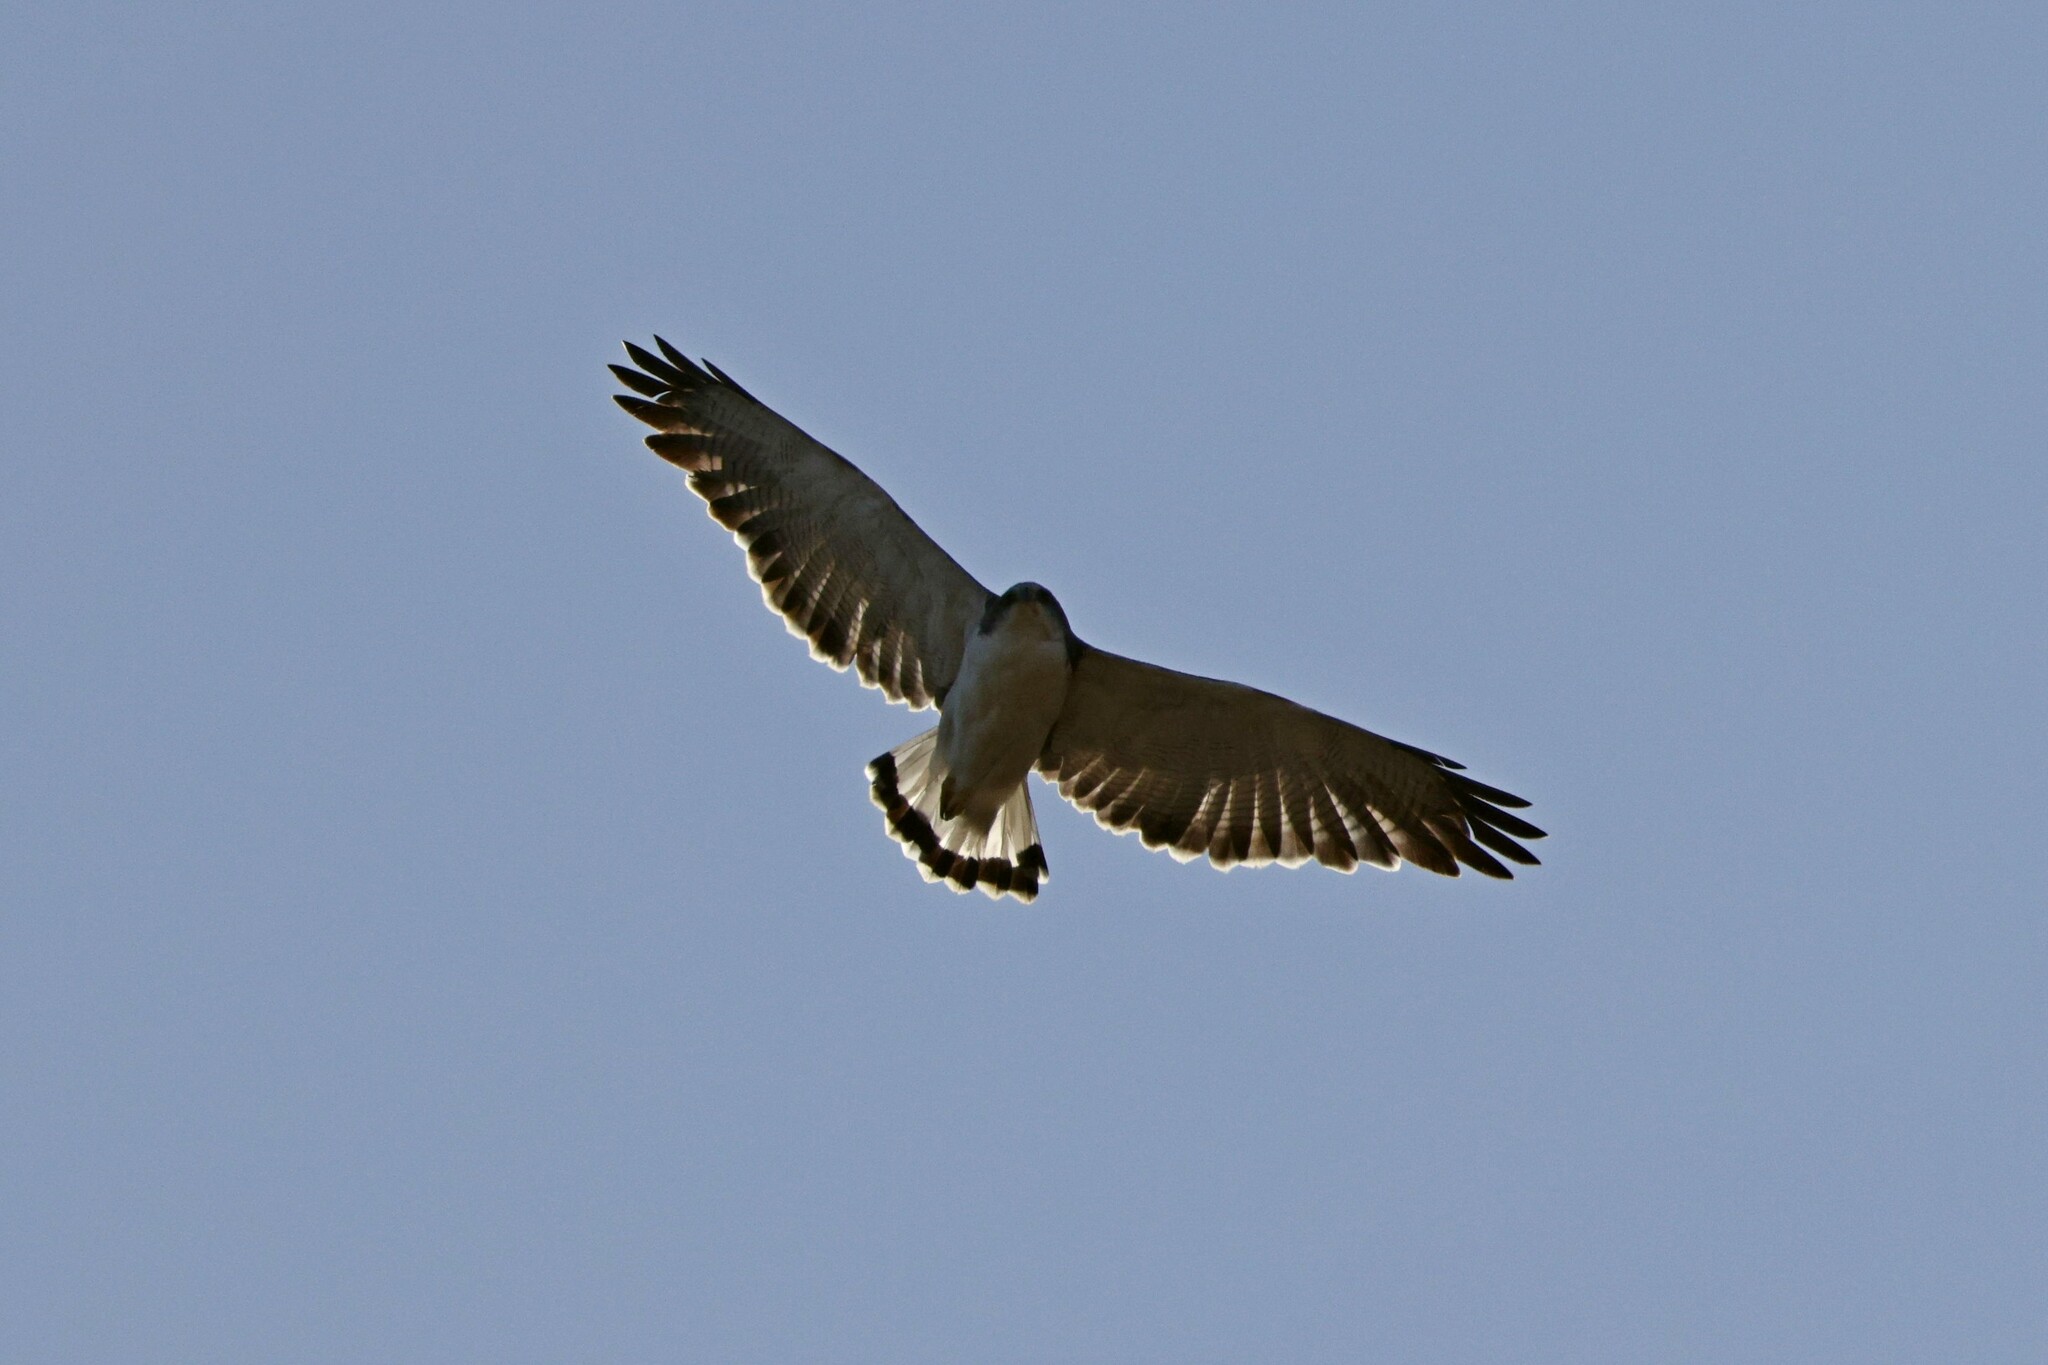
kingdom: Animalia
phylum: Chordata
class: Aves
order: Accipitriformes
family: Accipitridae
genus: Buteo
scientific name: Buteo polyosoma
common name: Variable hawk
